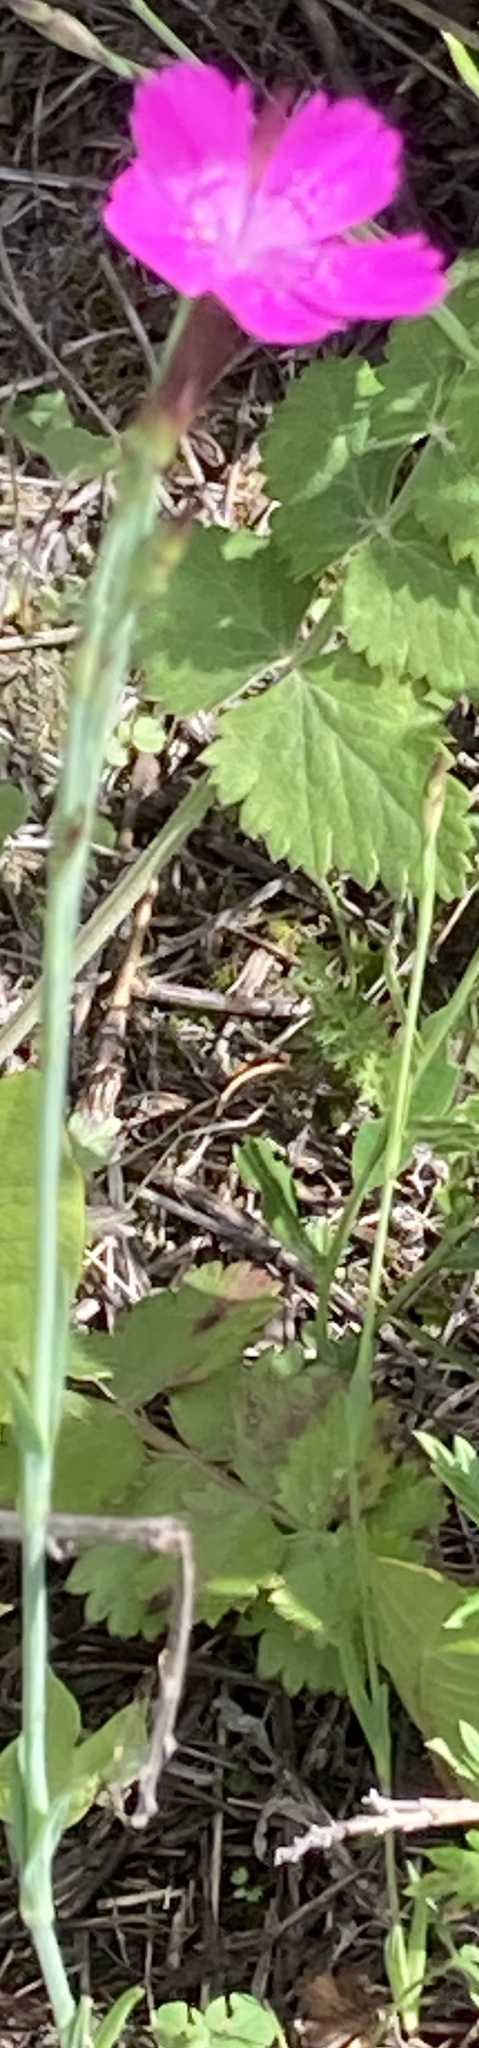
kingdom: Plantae
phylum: Tracheophyta
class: Magnoliopsida
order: Caryophyllales
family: Caryophyllaceae
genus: Dianthus
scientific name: Dianthus chinensis
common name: Rainbow pink
